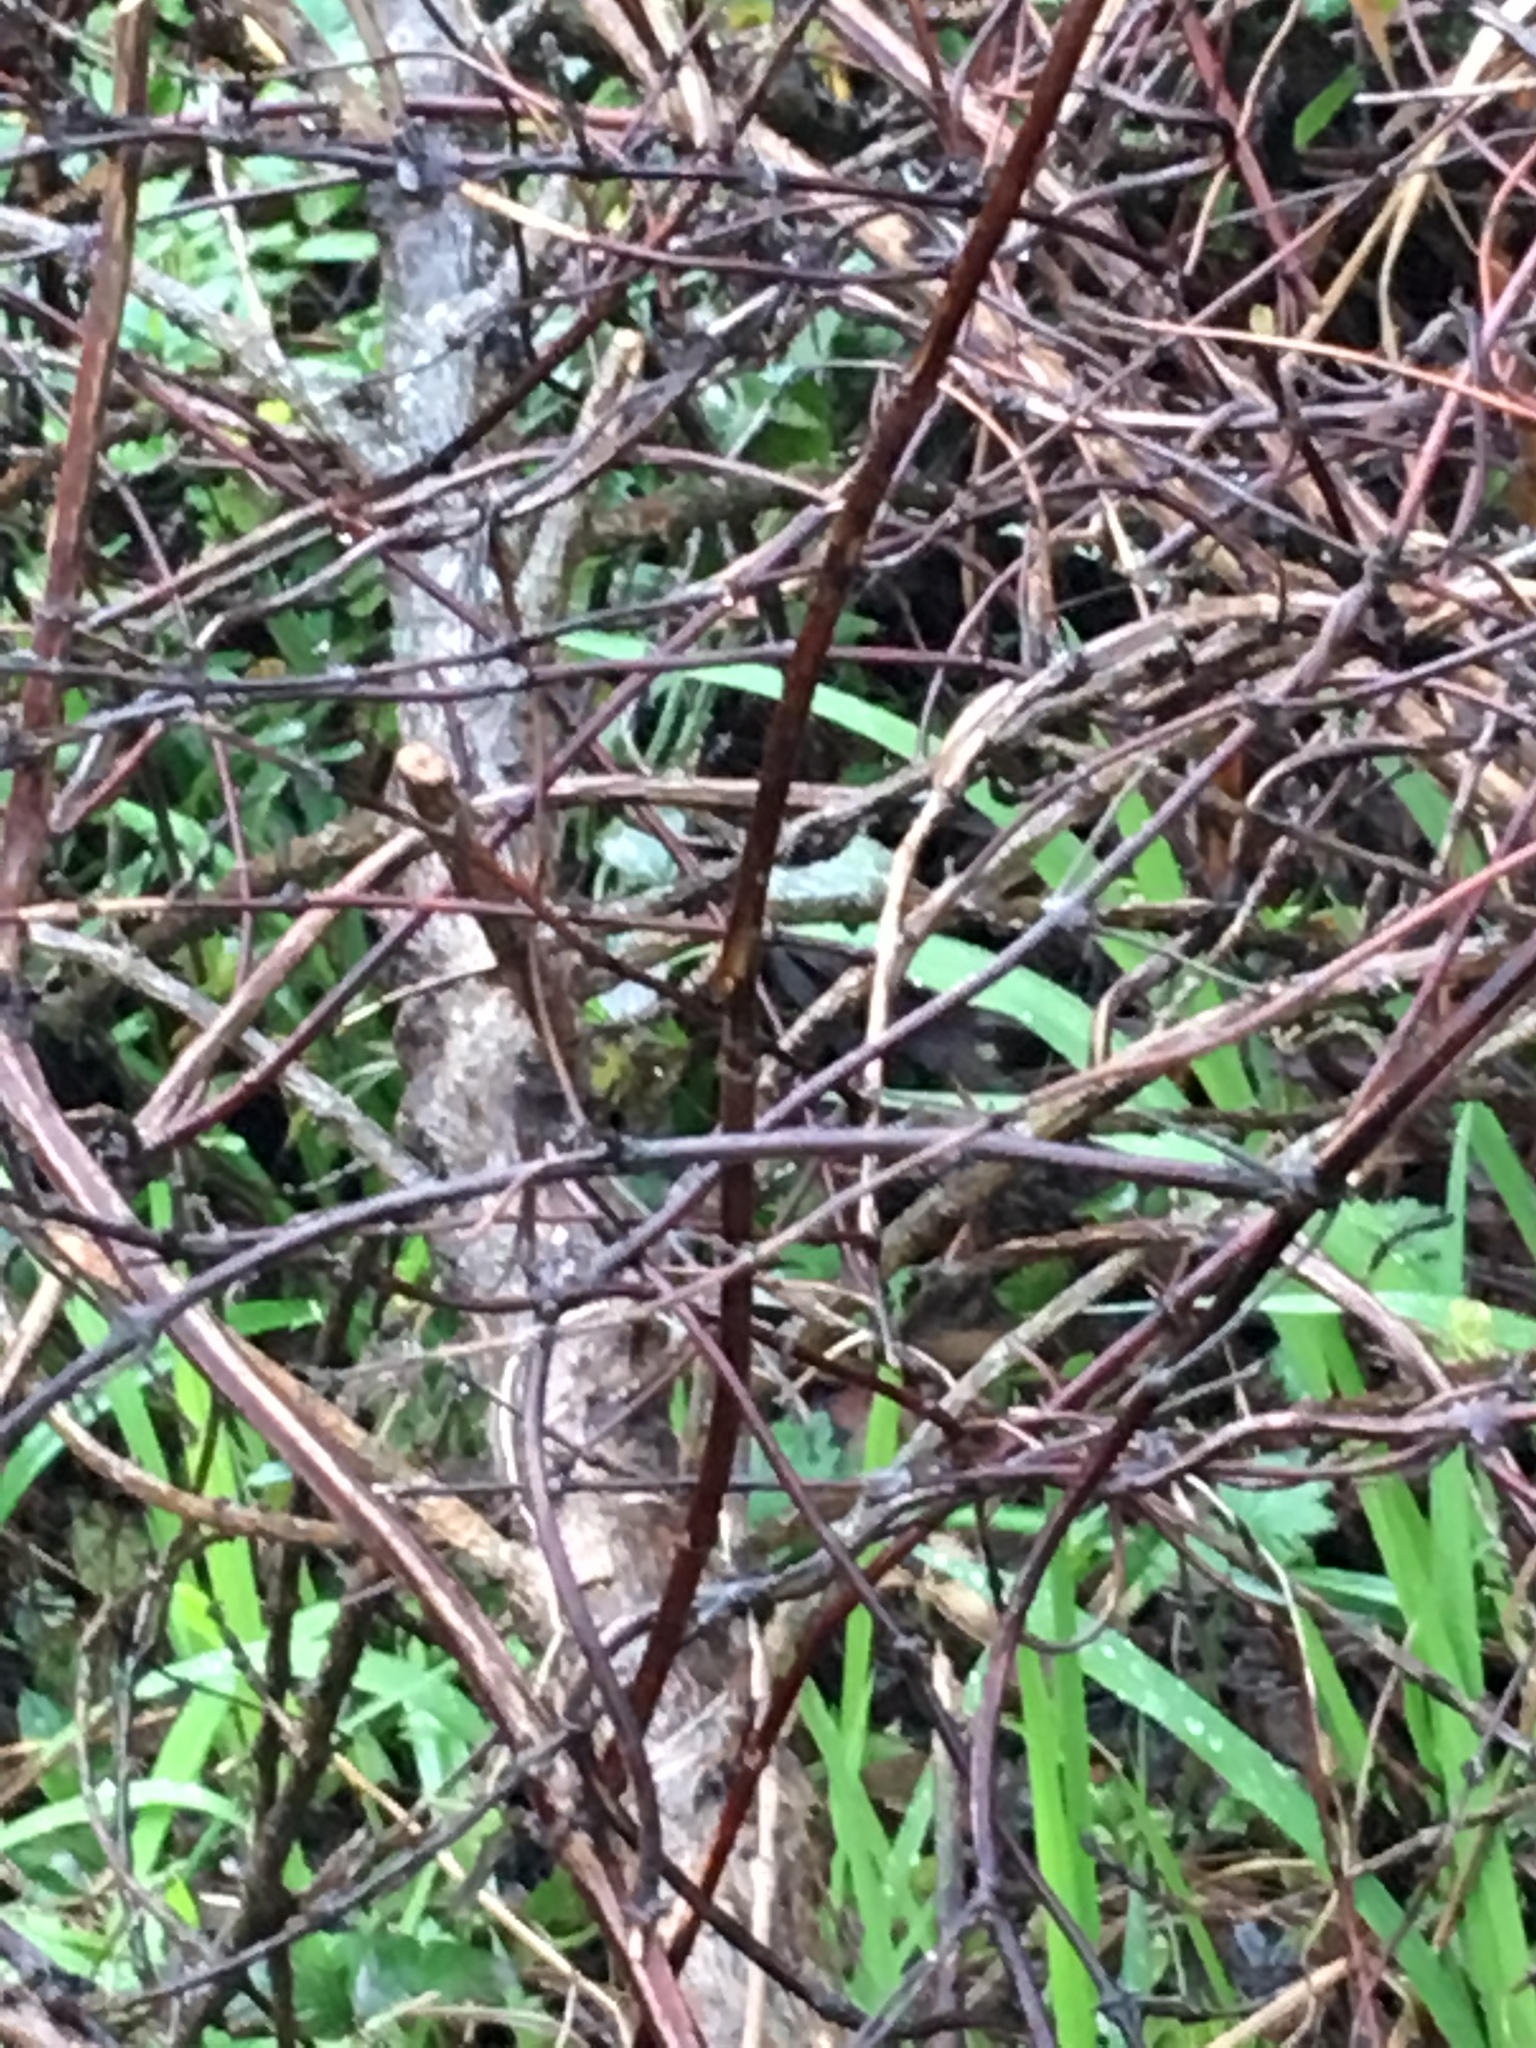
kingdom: Plantae
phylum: Tracheophyta
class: Magnoliopsida
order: Gentianales
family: Rubiaceae
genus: Coprosma
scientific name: Coprosma robusta
